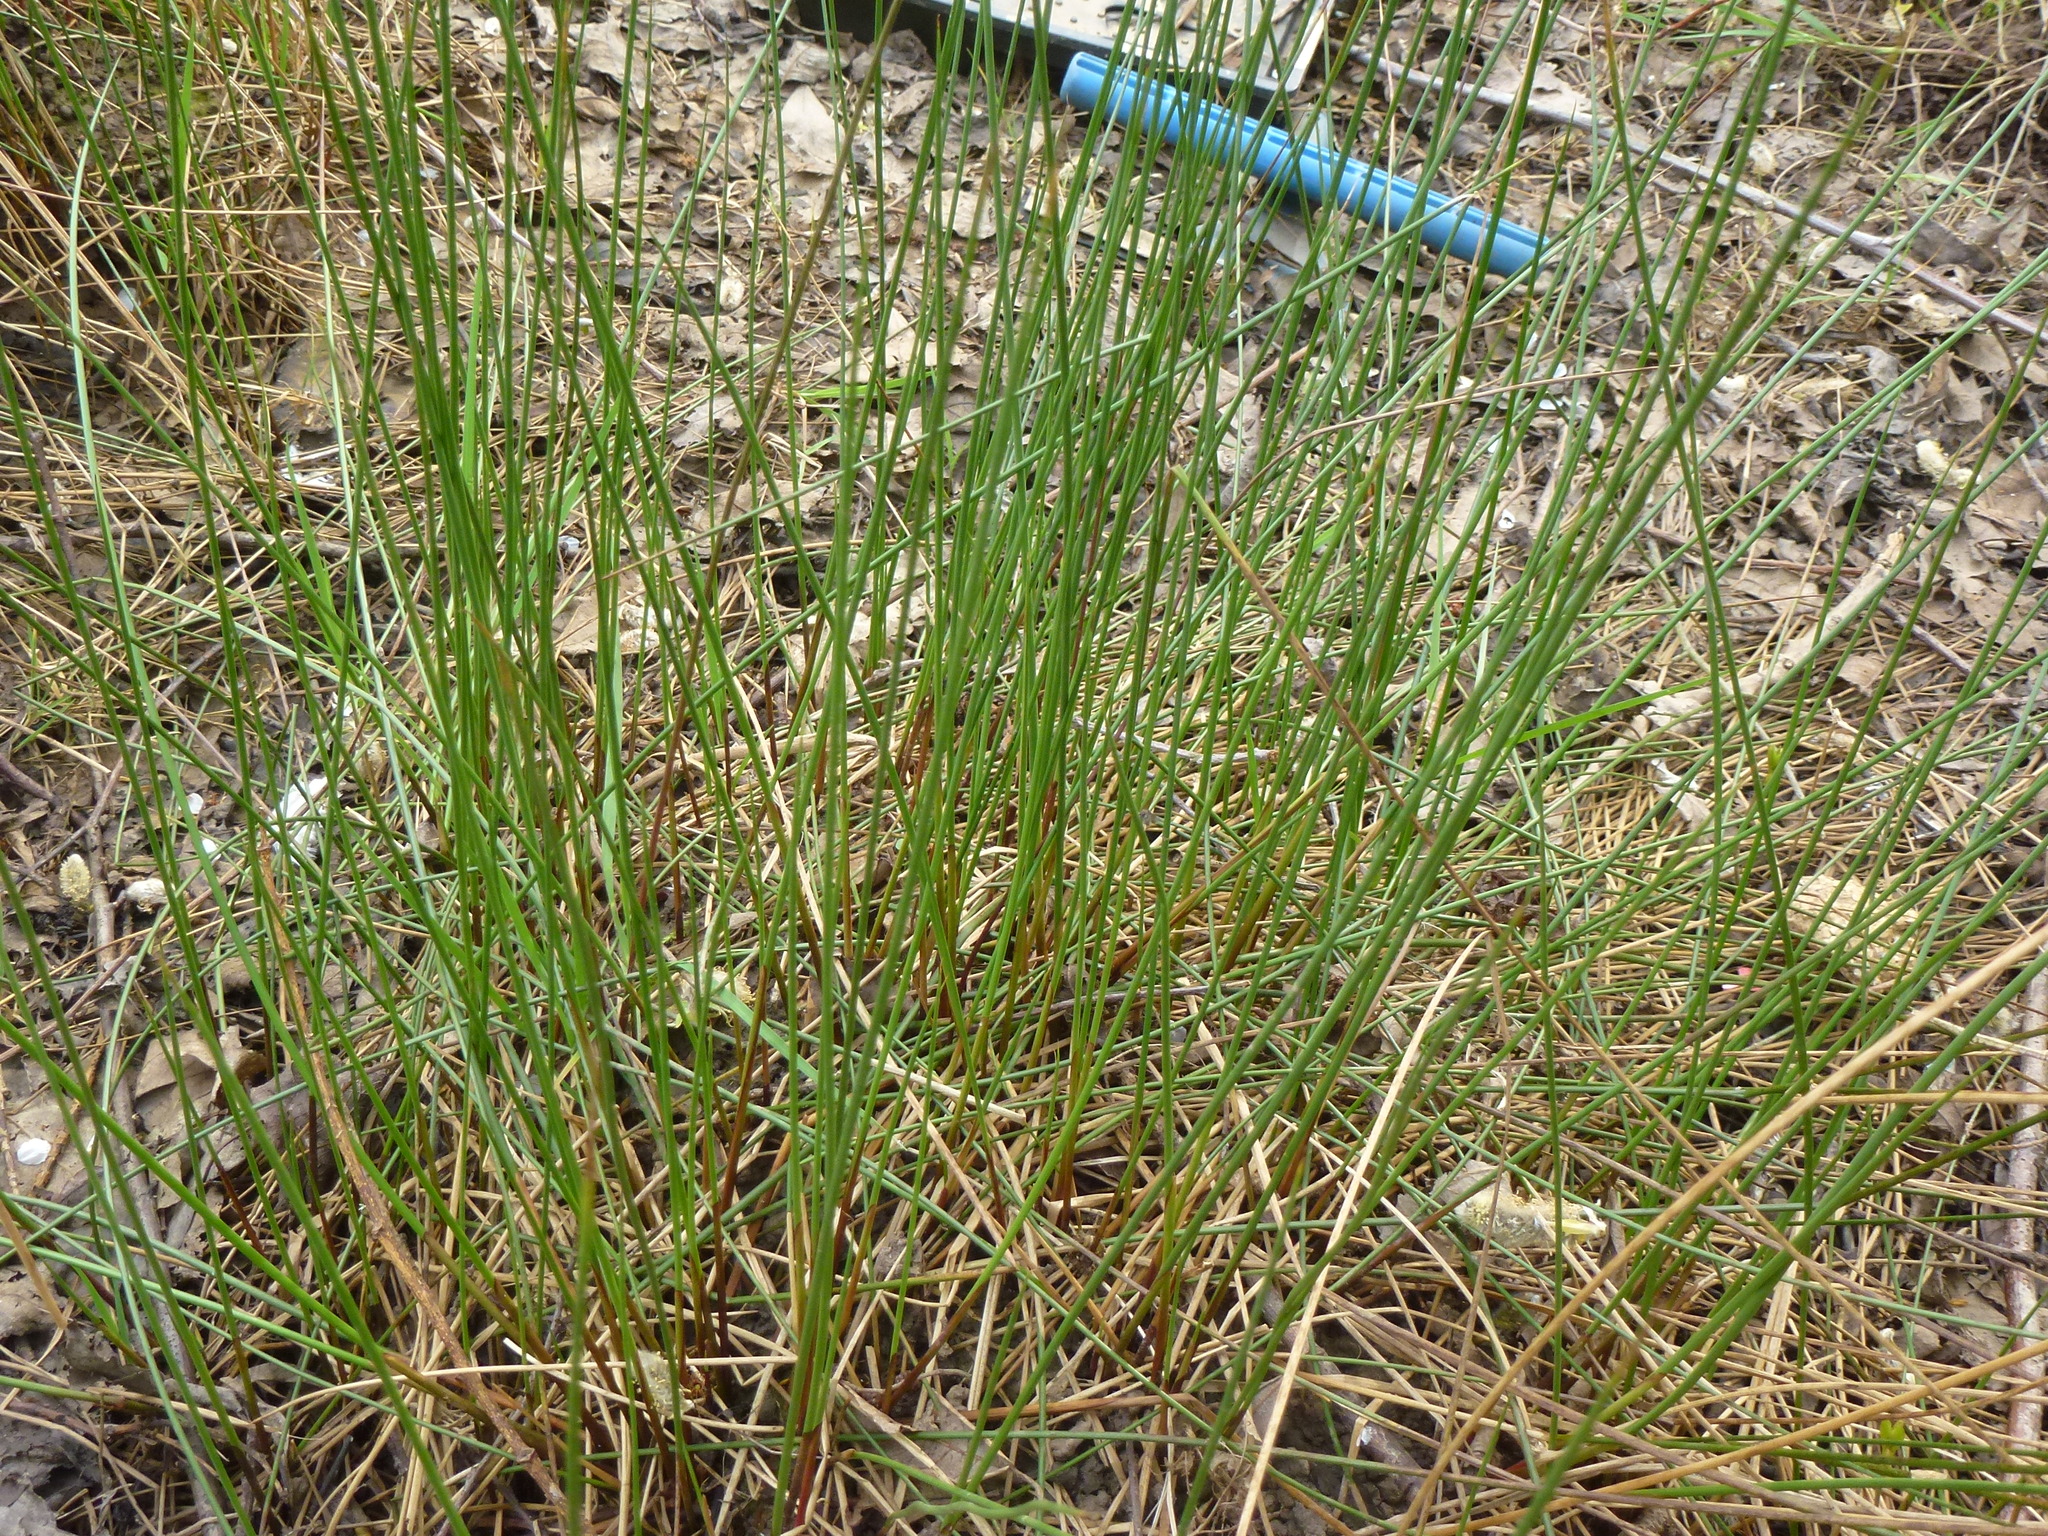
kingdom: Plantae
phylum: Tracheophyta
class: Liliopsida
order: Poales
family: Juncaceae
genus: Juncus
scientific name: Juncus effusus
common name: Soft rush
